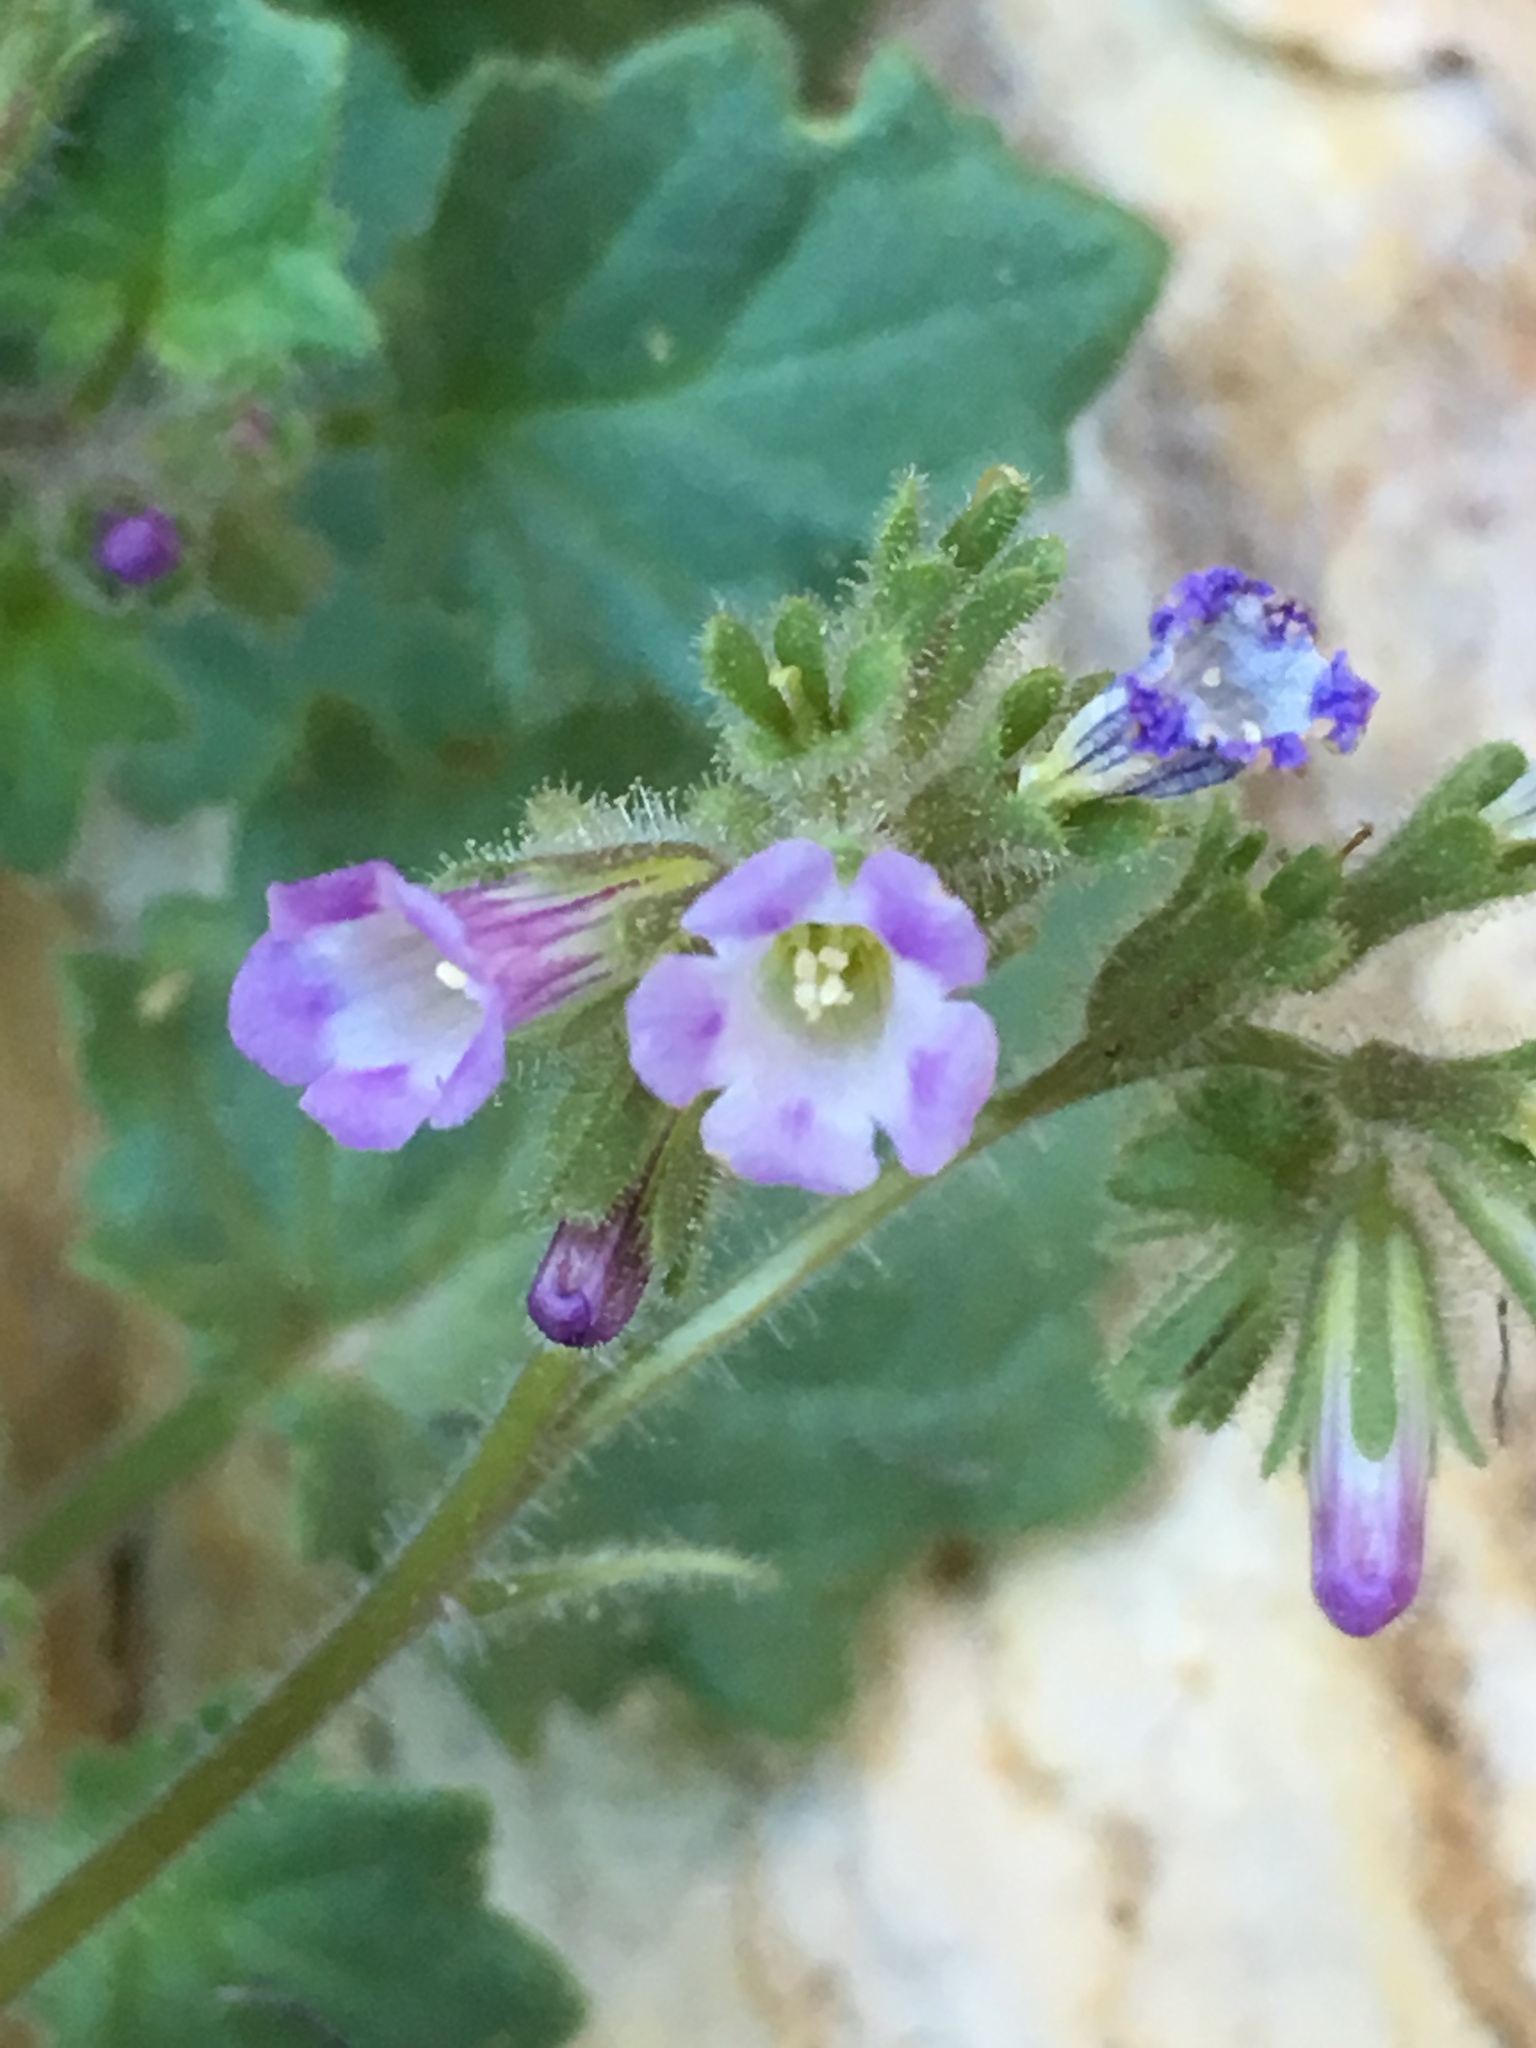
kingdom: Plantae
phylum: Tracheophyta
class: Magnoliopsida
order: Boraginales
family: Hydrophyllaceae
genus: Phacelia
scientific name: Phacelia mustelina
